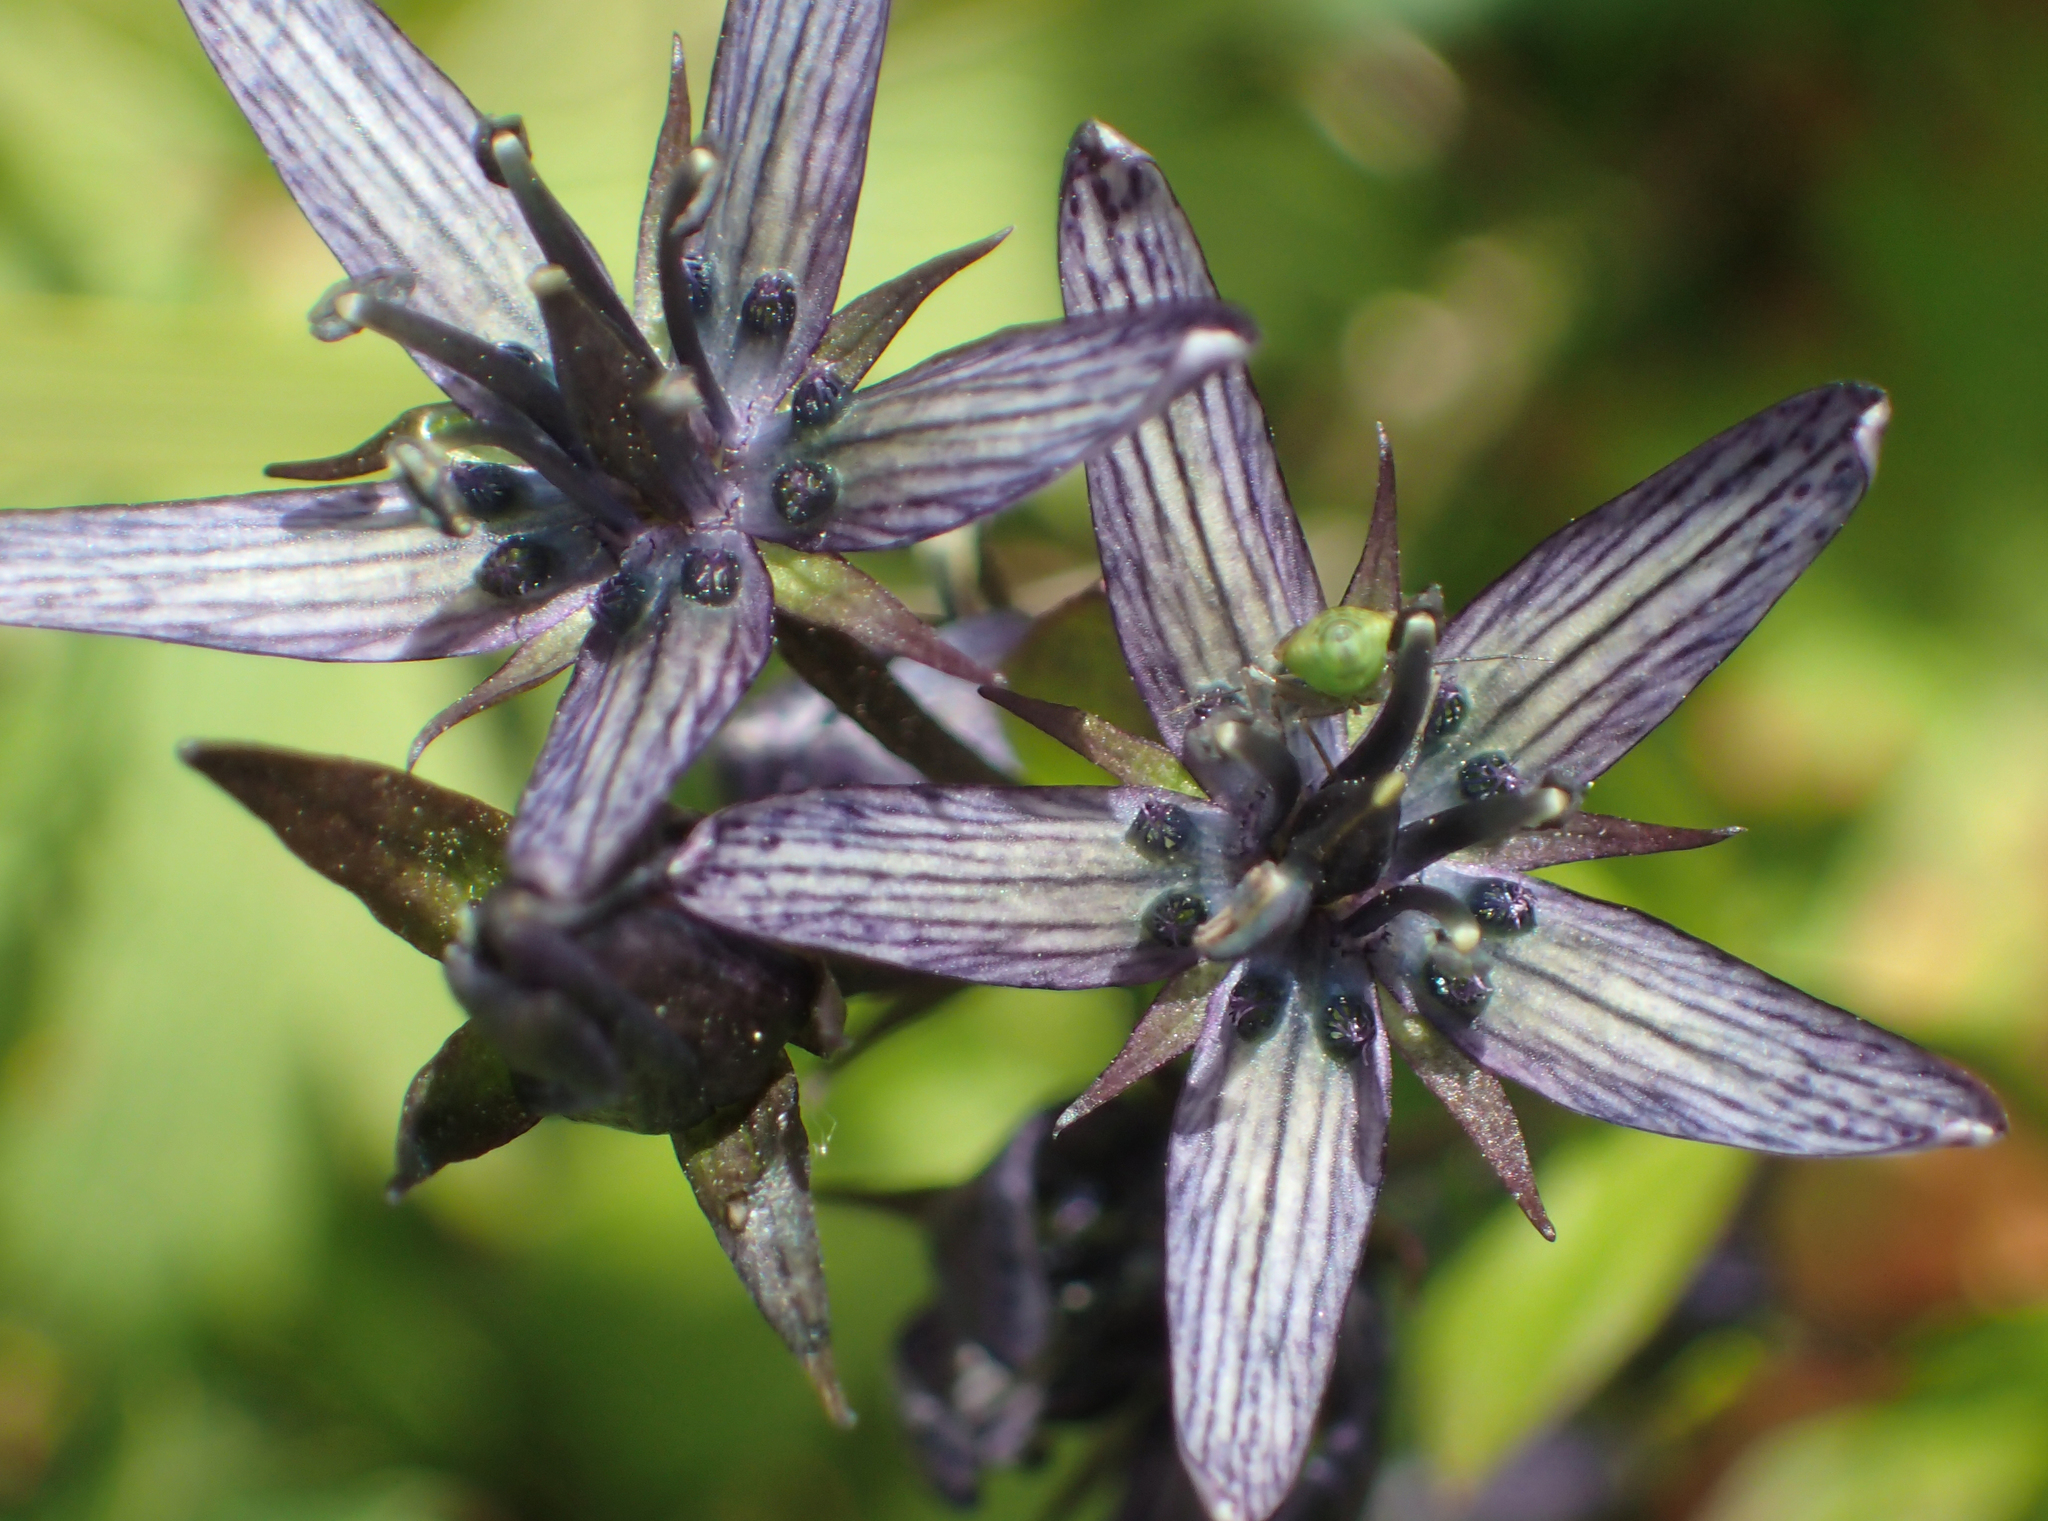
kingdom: Plantae
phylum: Tracheophyta
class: Magnoliopsida
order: Gentianales
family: Gentianaceae
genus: Swertia
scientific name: Swertia perennis
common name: Alpine bog swertia
